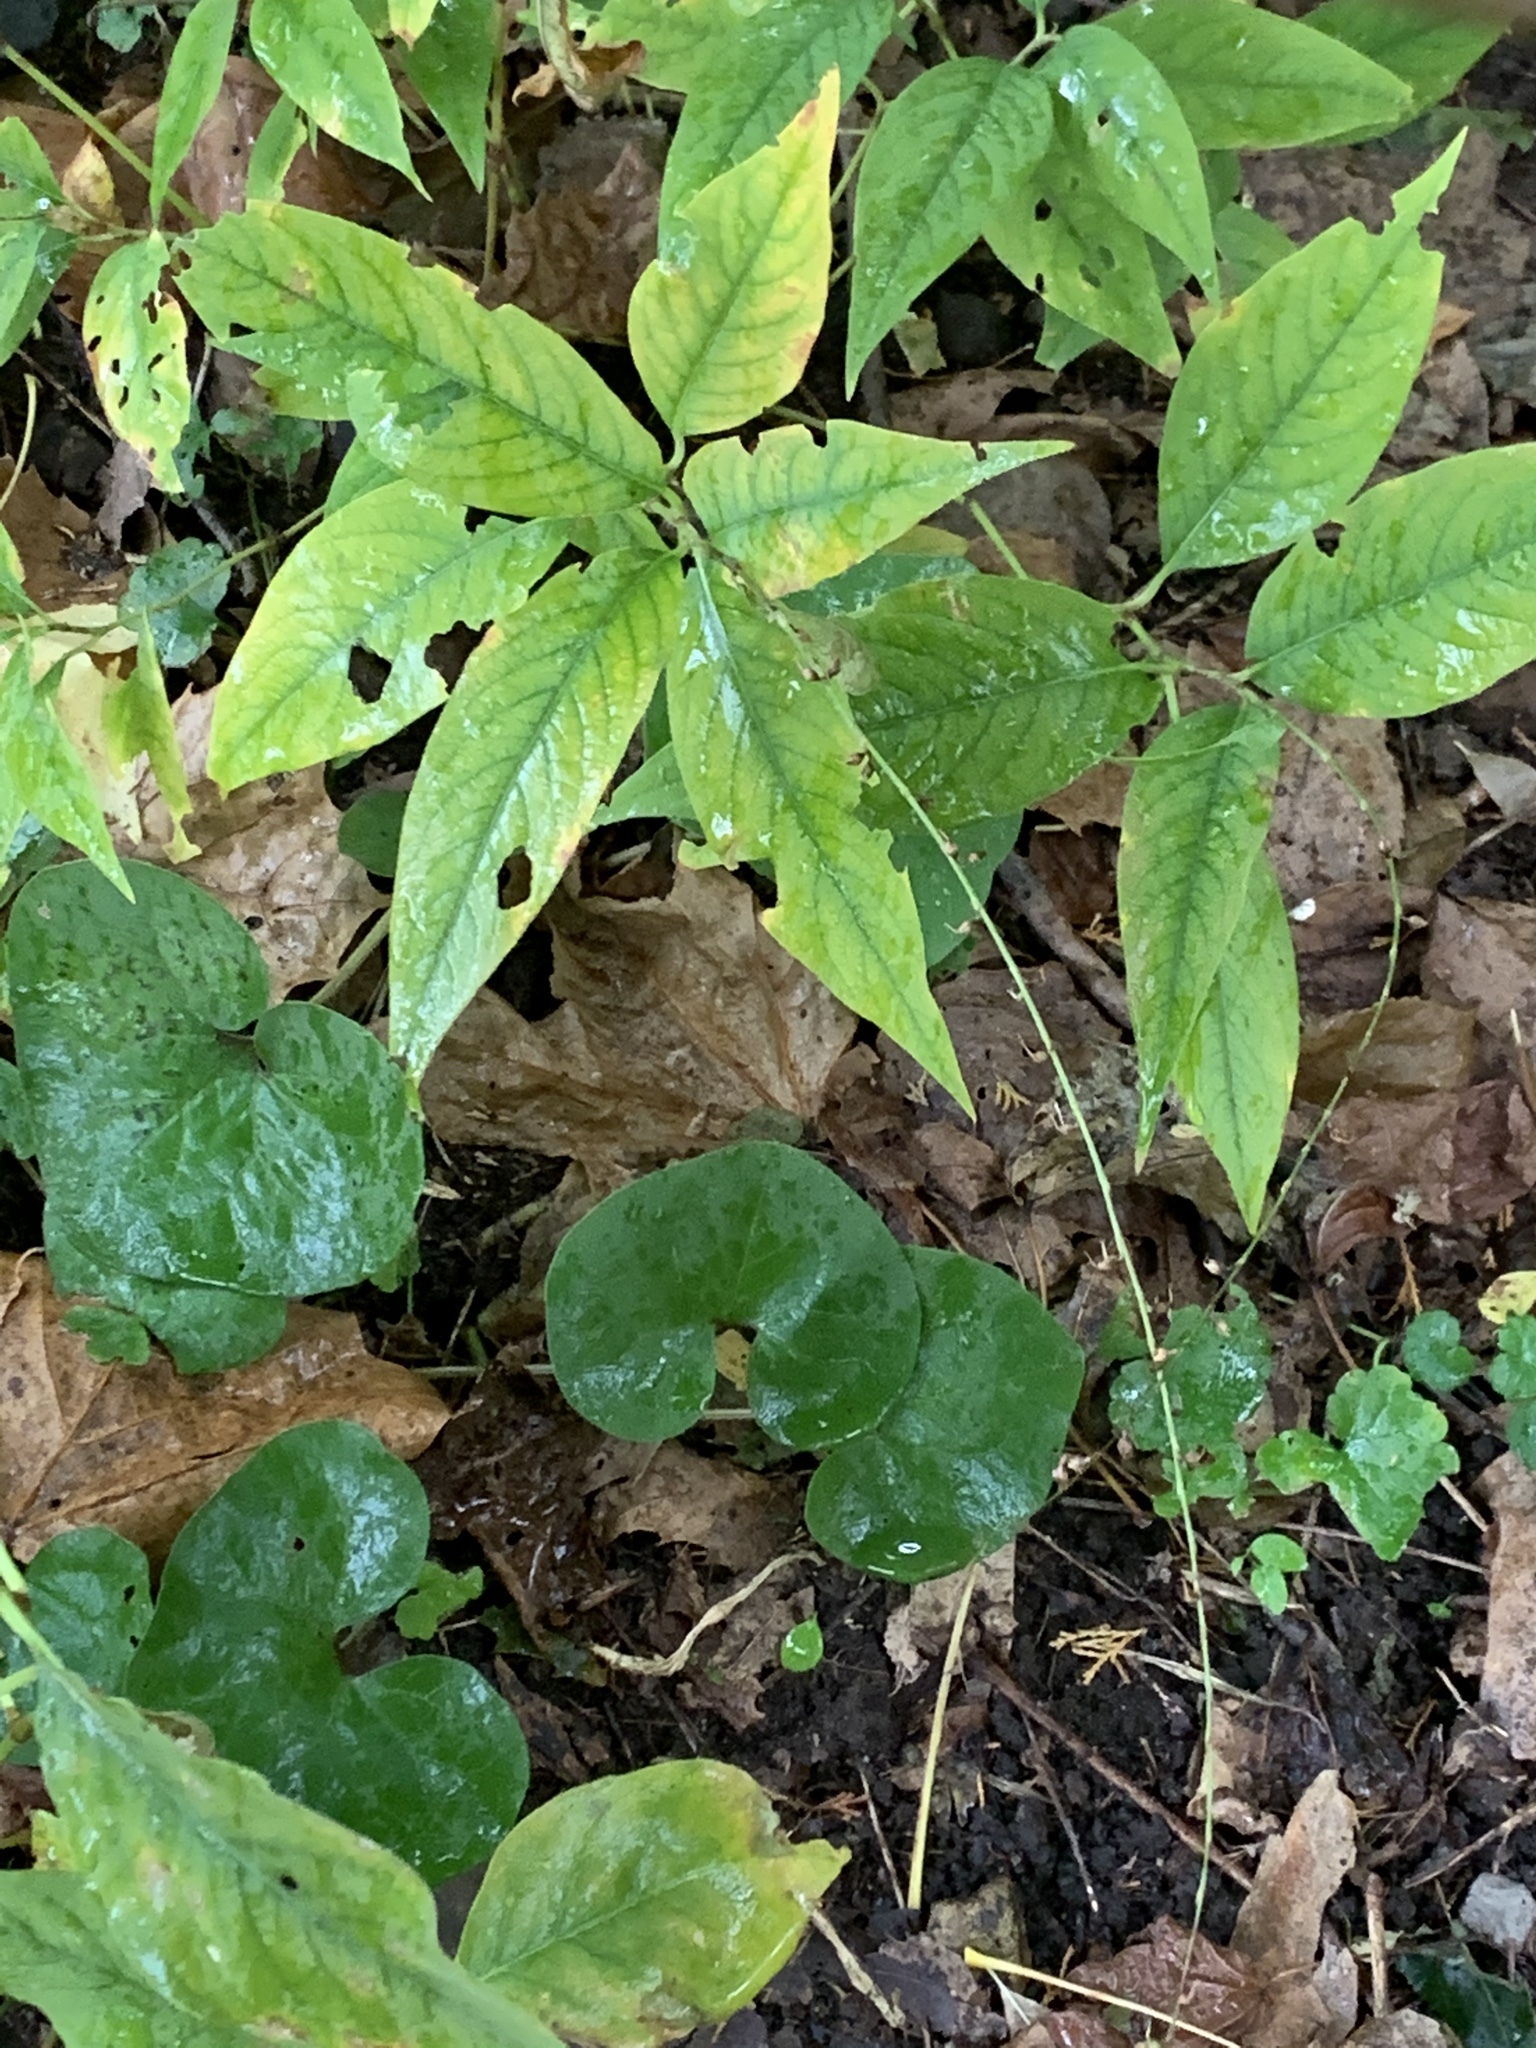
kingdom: Plantae
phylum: Tracheophyta
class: Magnoliopsida
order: Caryophyllales
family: Polygonaceae
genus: Persicaria
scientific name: Persicaria virginiana
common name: Jumpseed
